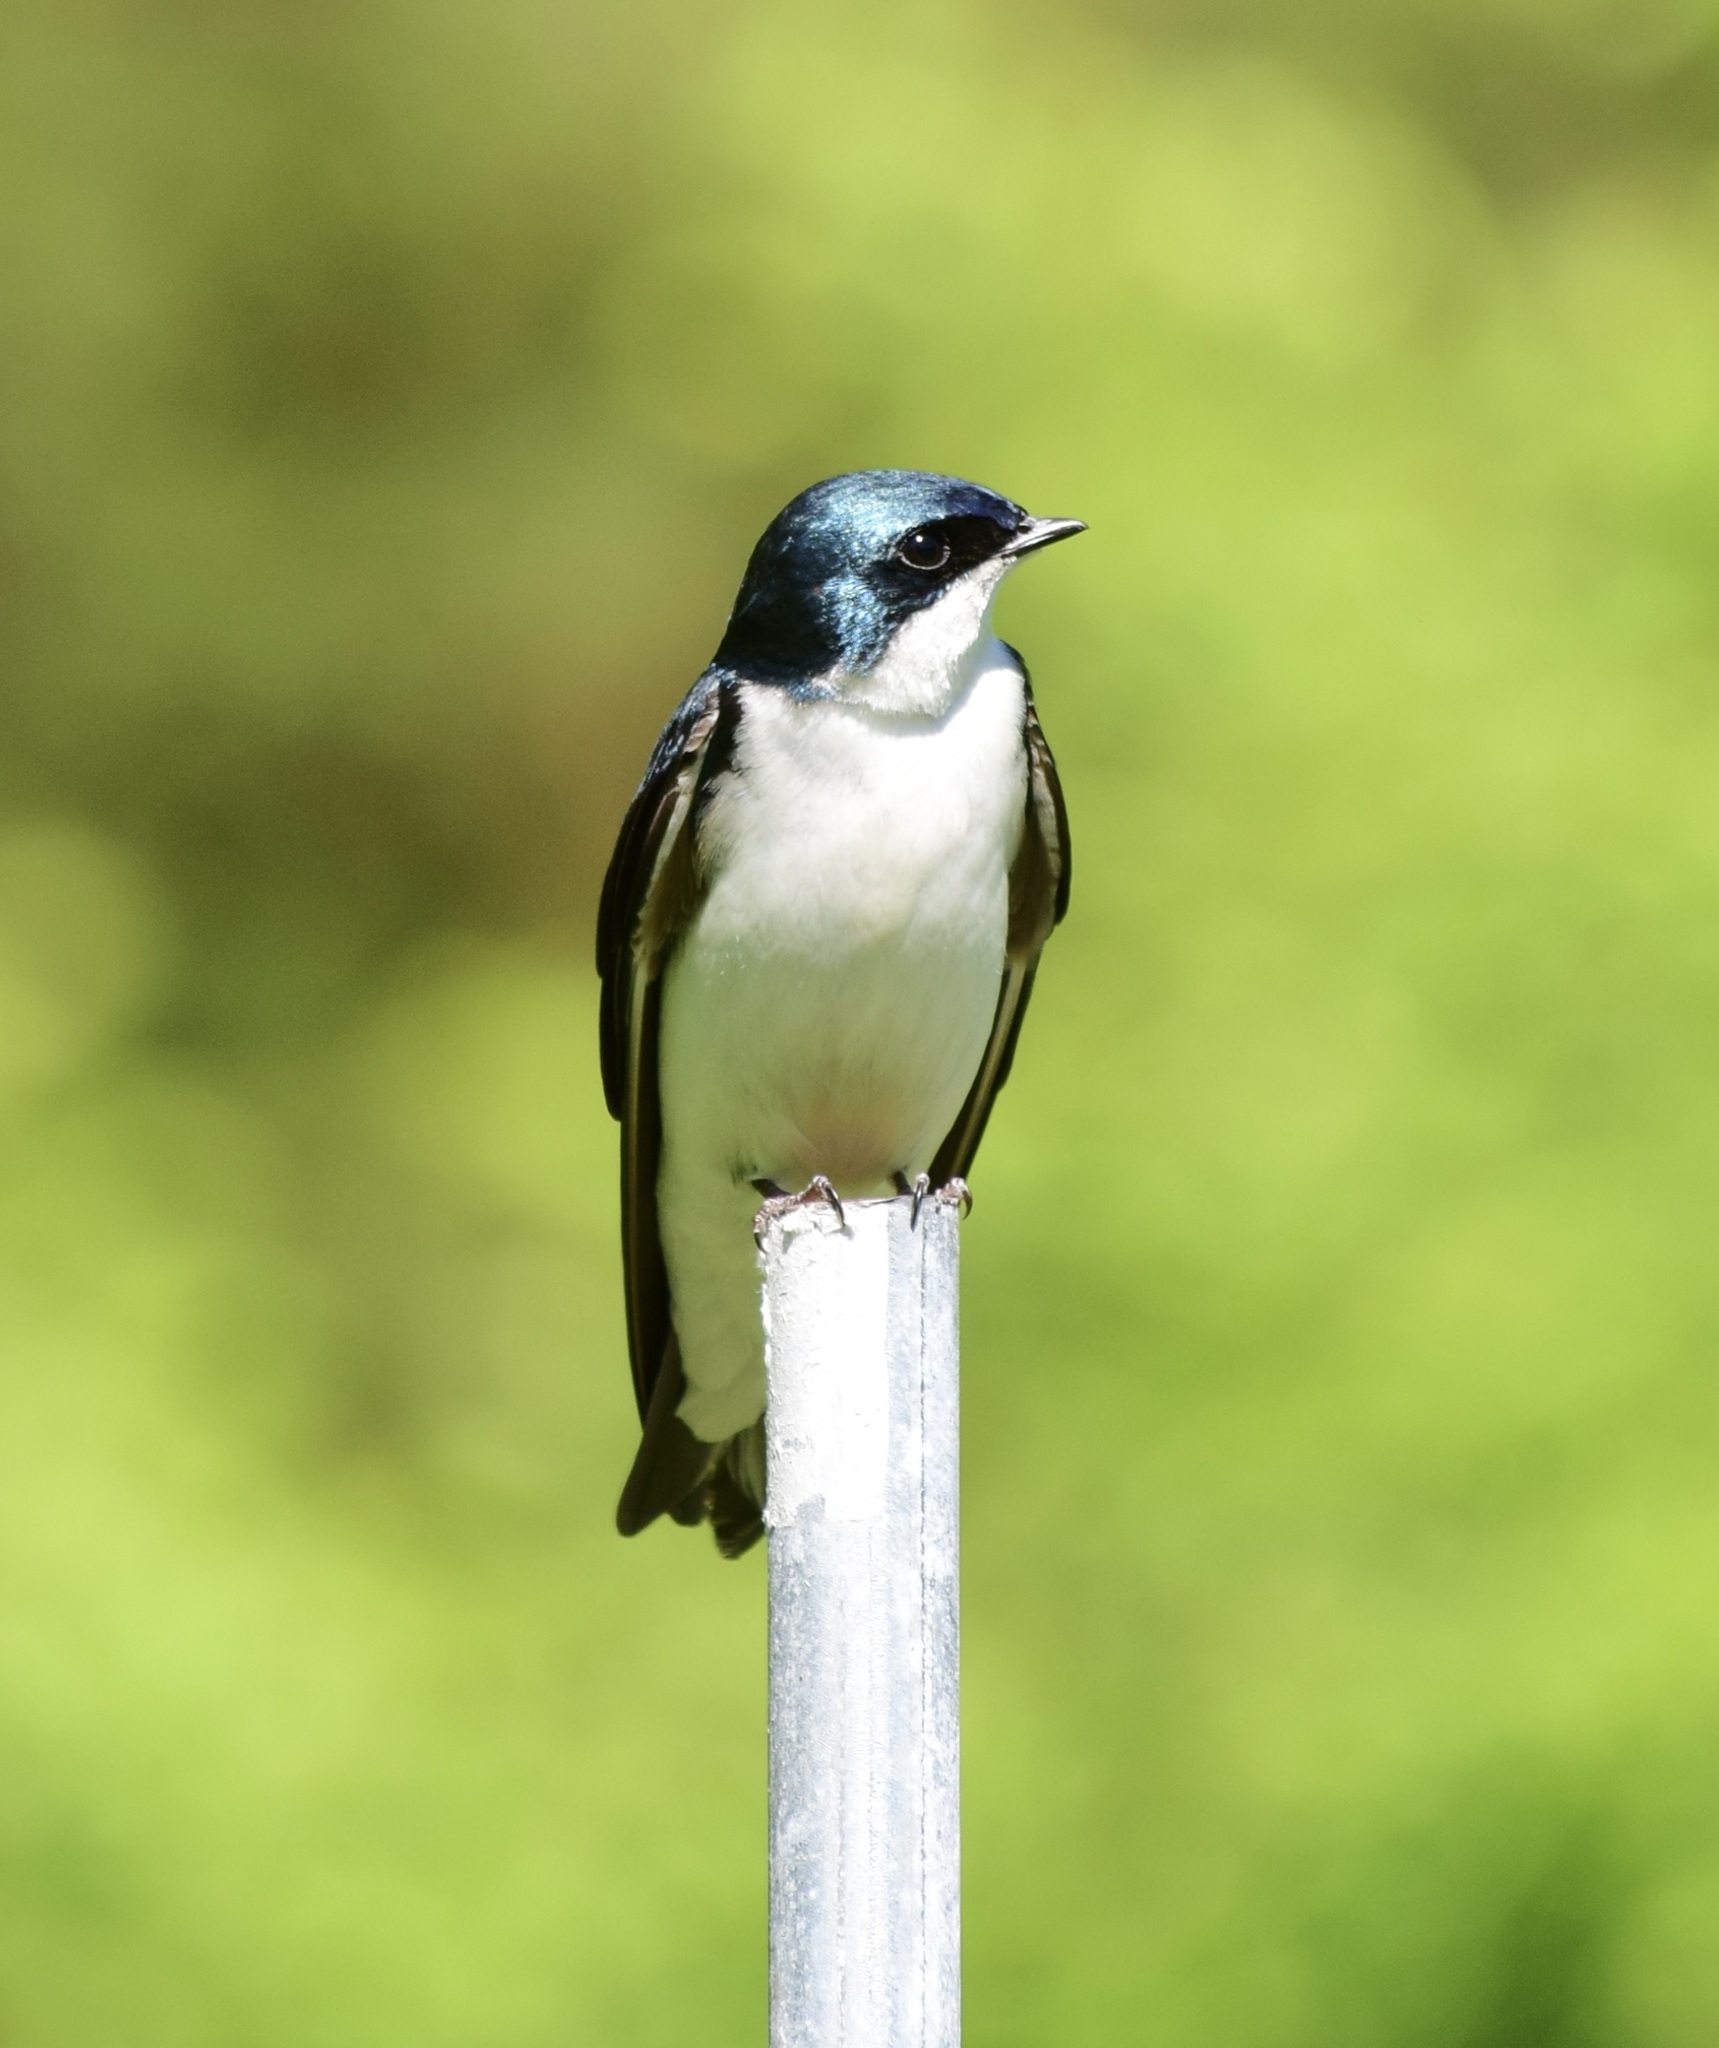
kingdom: Animalia
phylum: Chordata
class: Aves
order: Passeriformes
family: Hirundinidae
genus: Tachycineta
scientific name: Tachycineta bicolor
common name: Tree swallow
